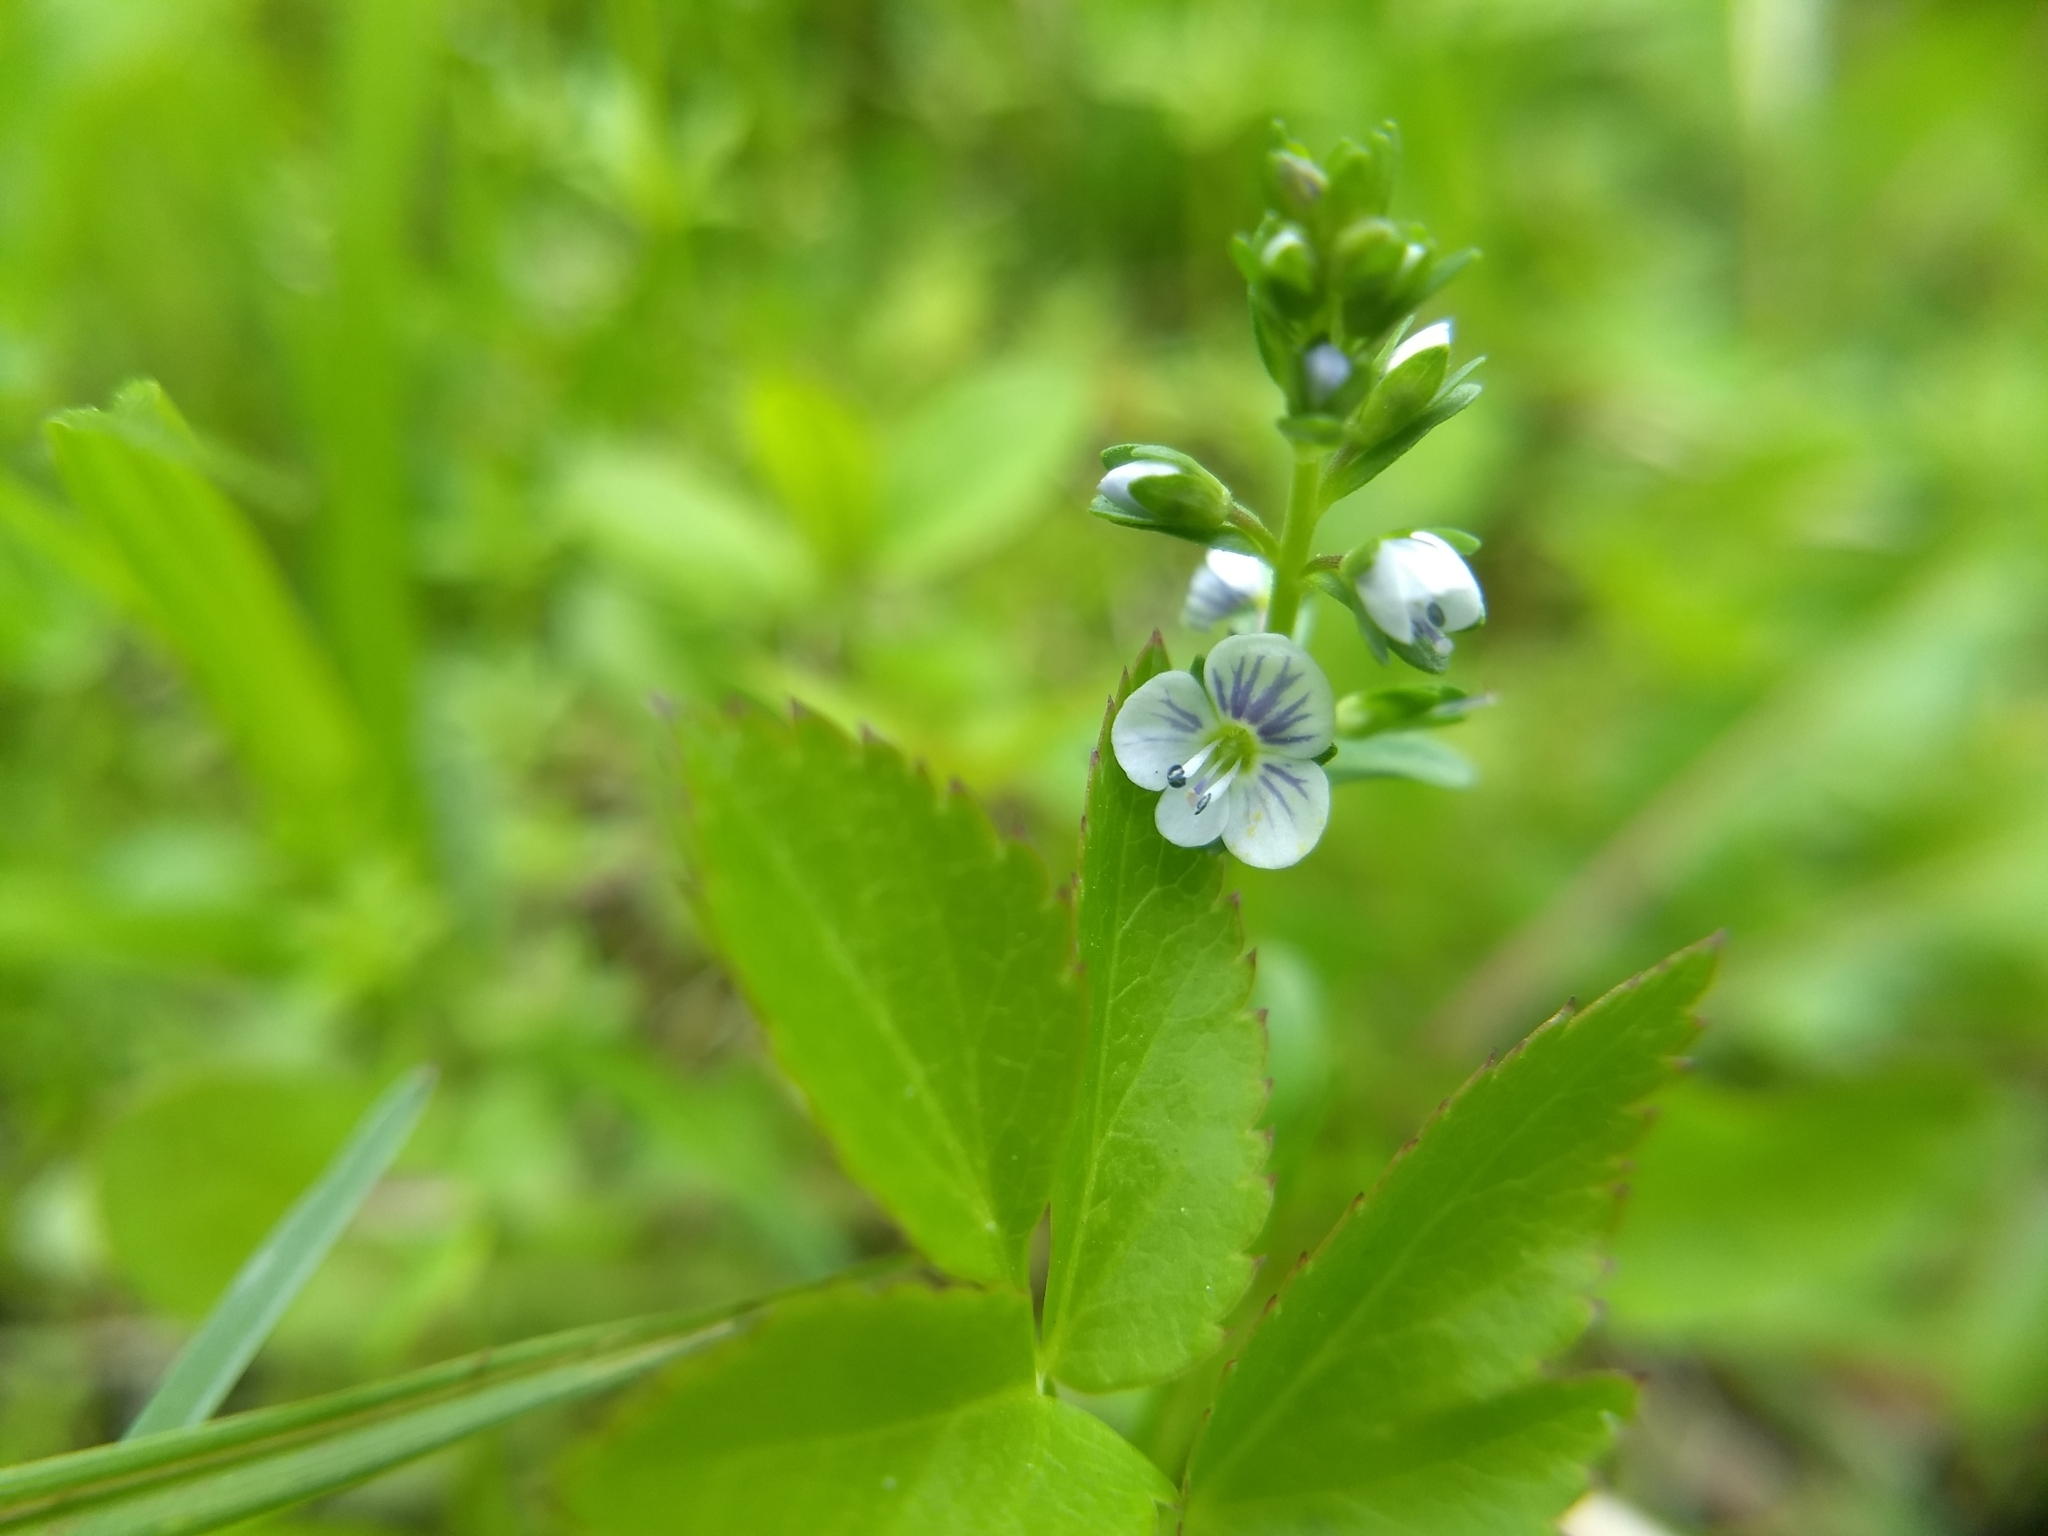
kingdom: Plantae
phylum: Tracheophyta
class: Magnoliopsida
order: Lamiales
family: Plantaginaceae
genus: Veronica
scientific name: Veronica serpyllifolia
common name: Thyme-leaved speedwell
